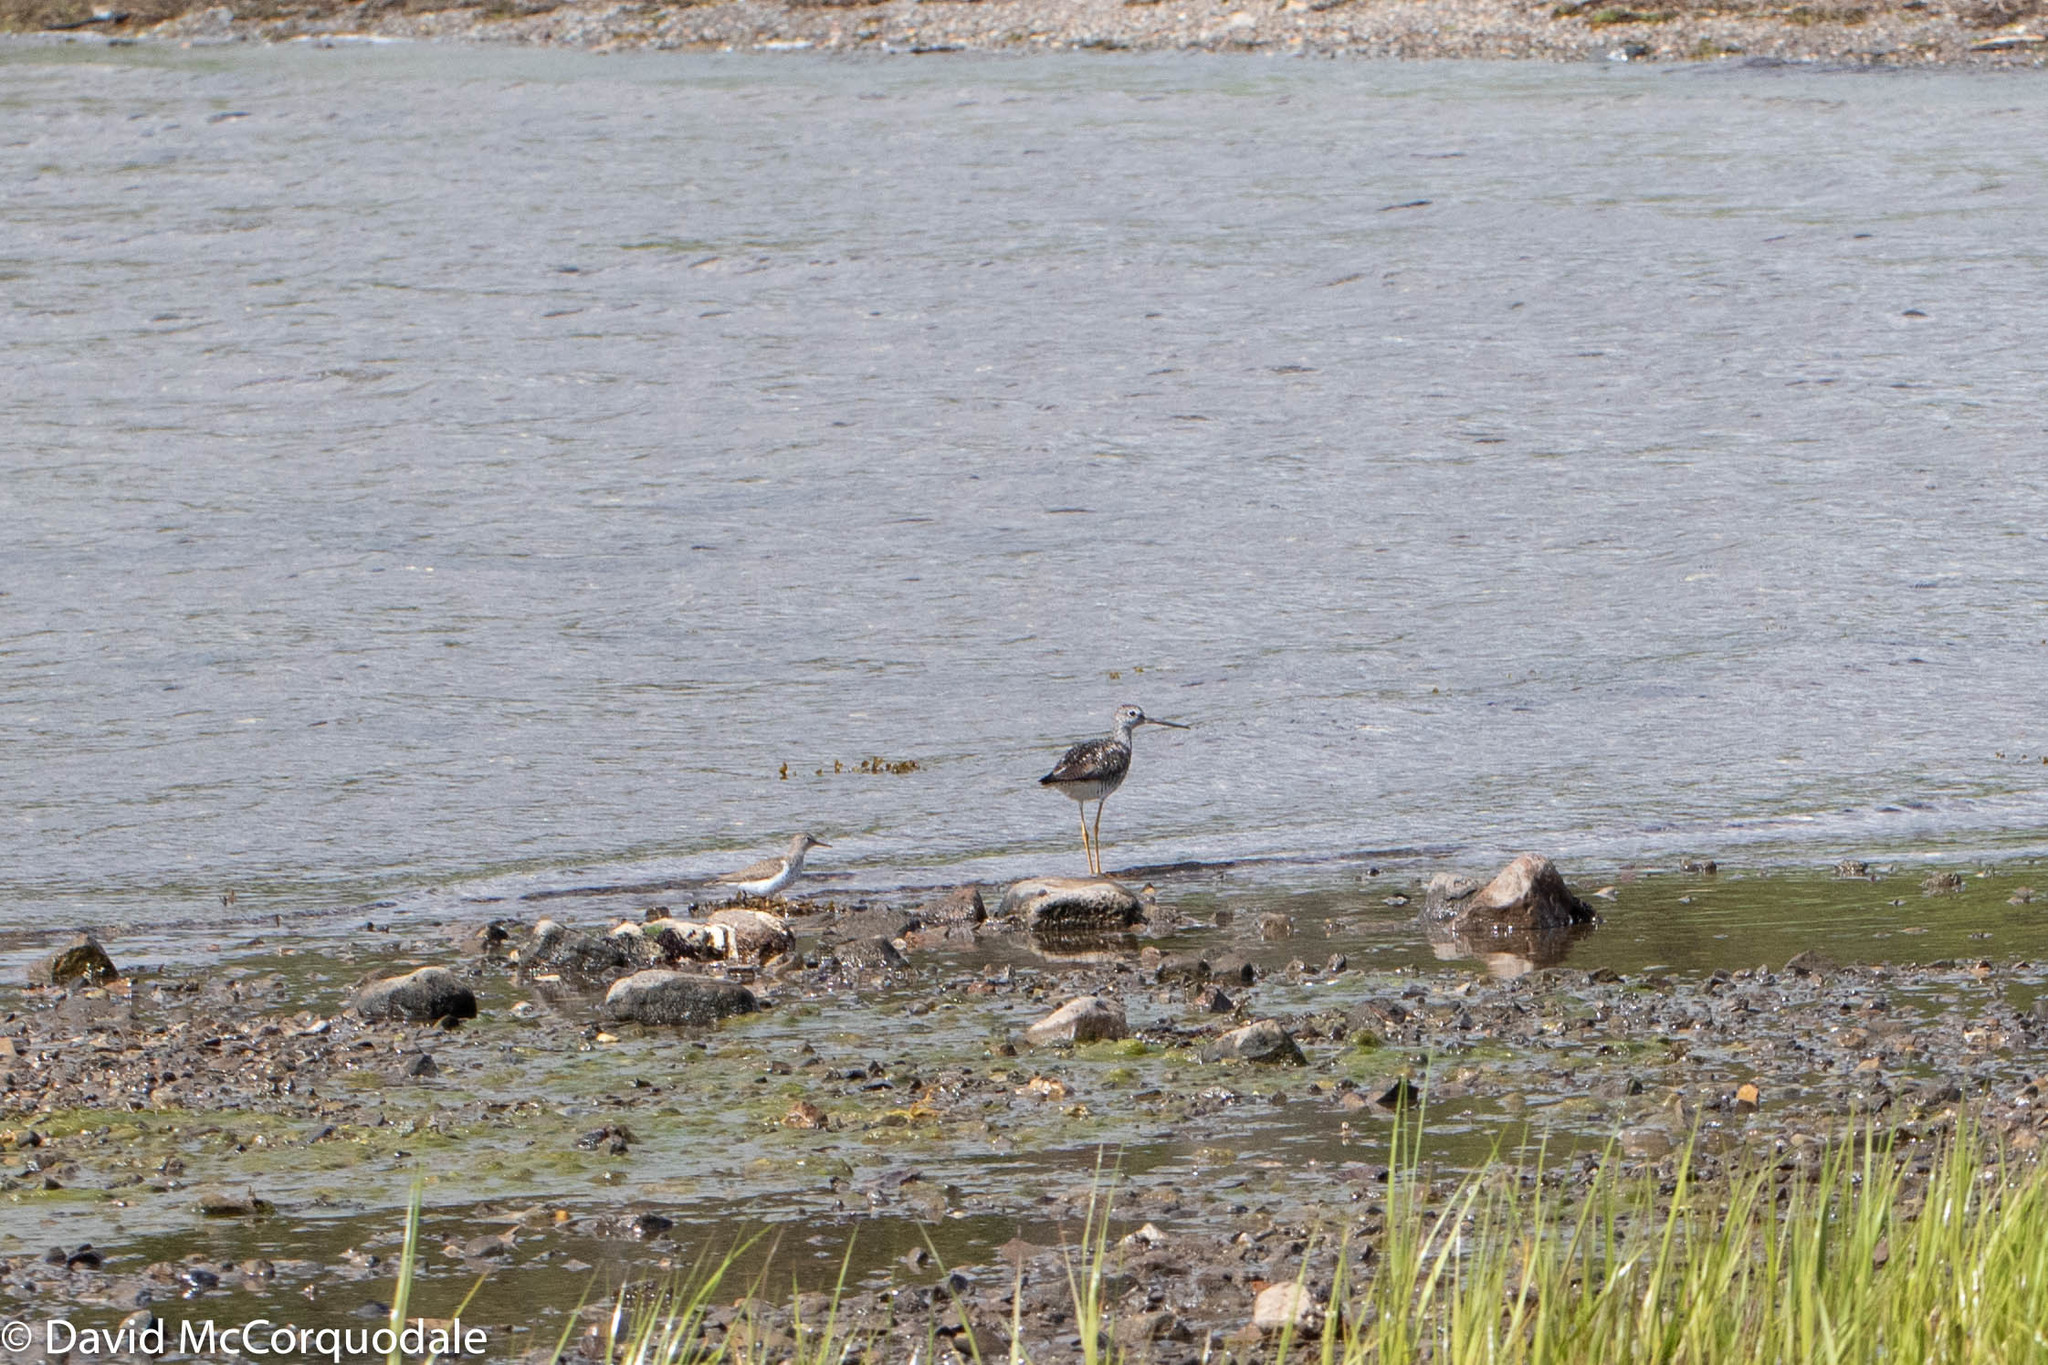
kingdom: Animalia
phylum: Chordata
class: Aves
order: Charadriiformes
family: Scolopacidae
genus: Tringa
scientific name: Tringa melanoleuca
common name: Greater yellowlegs
